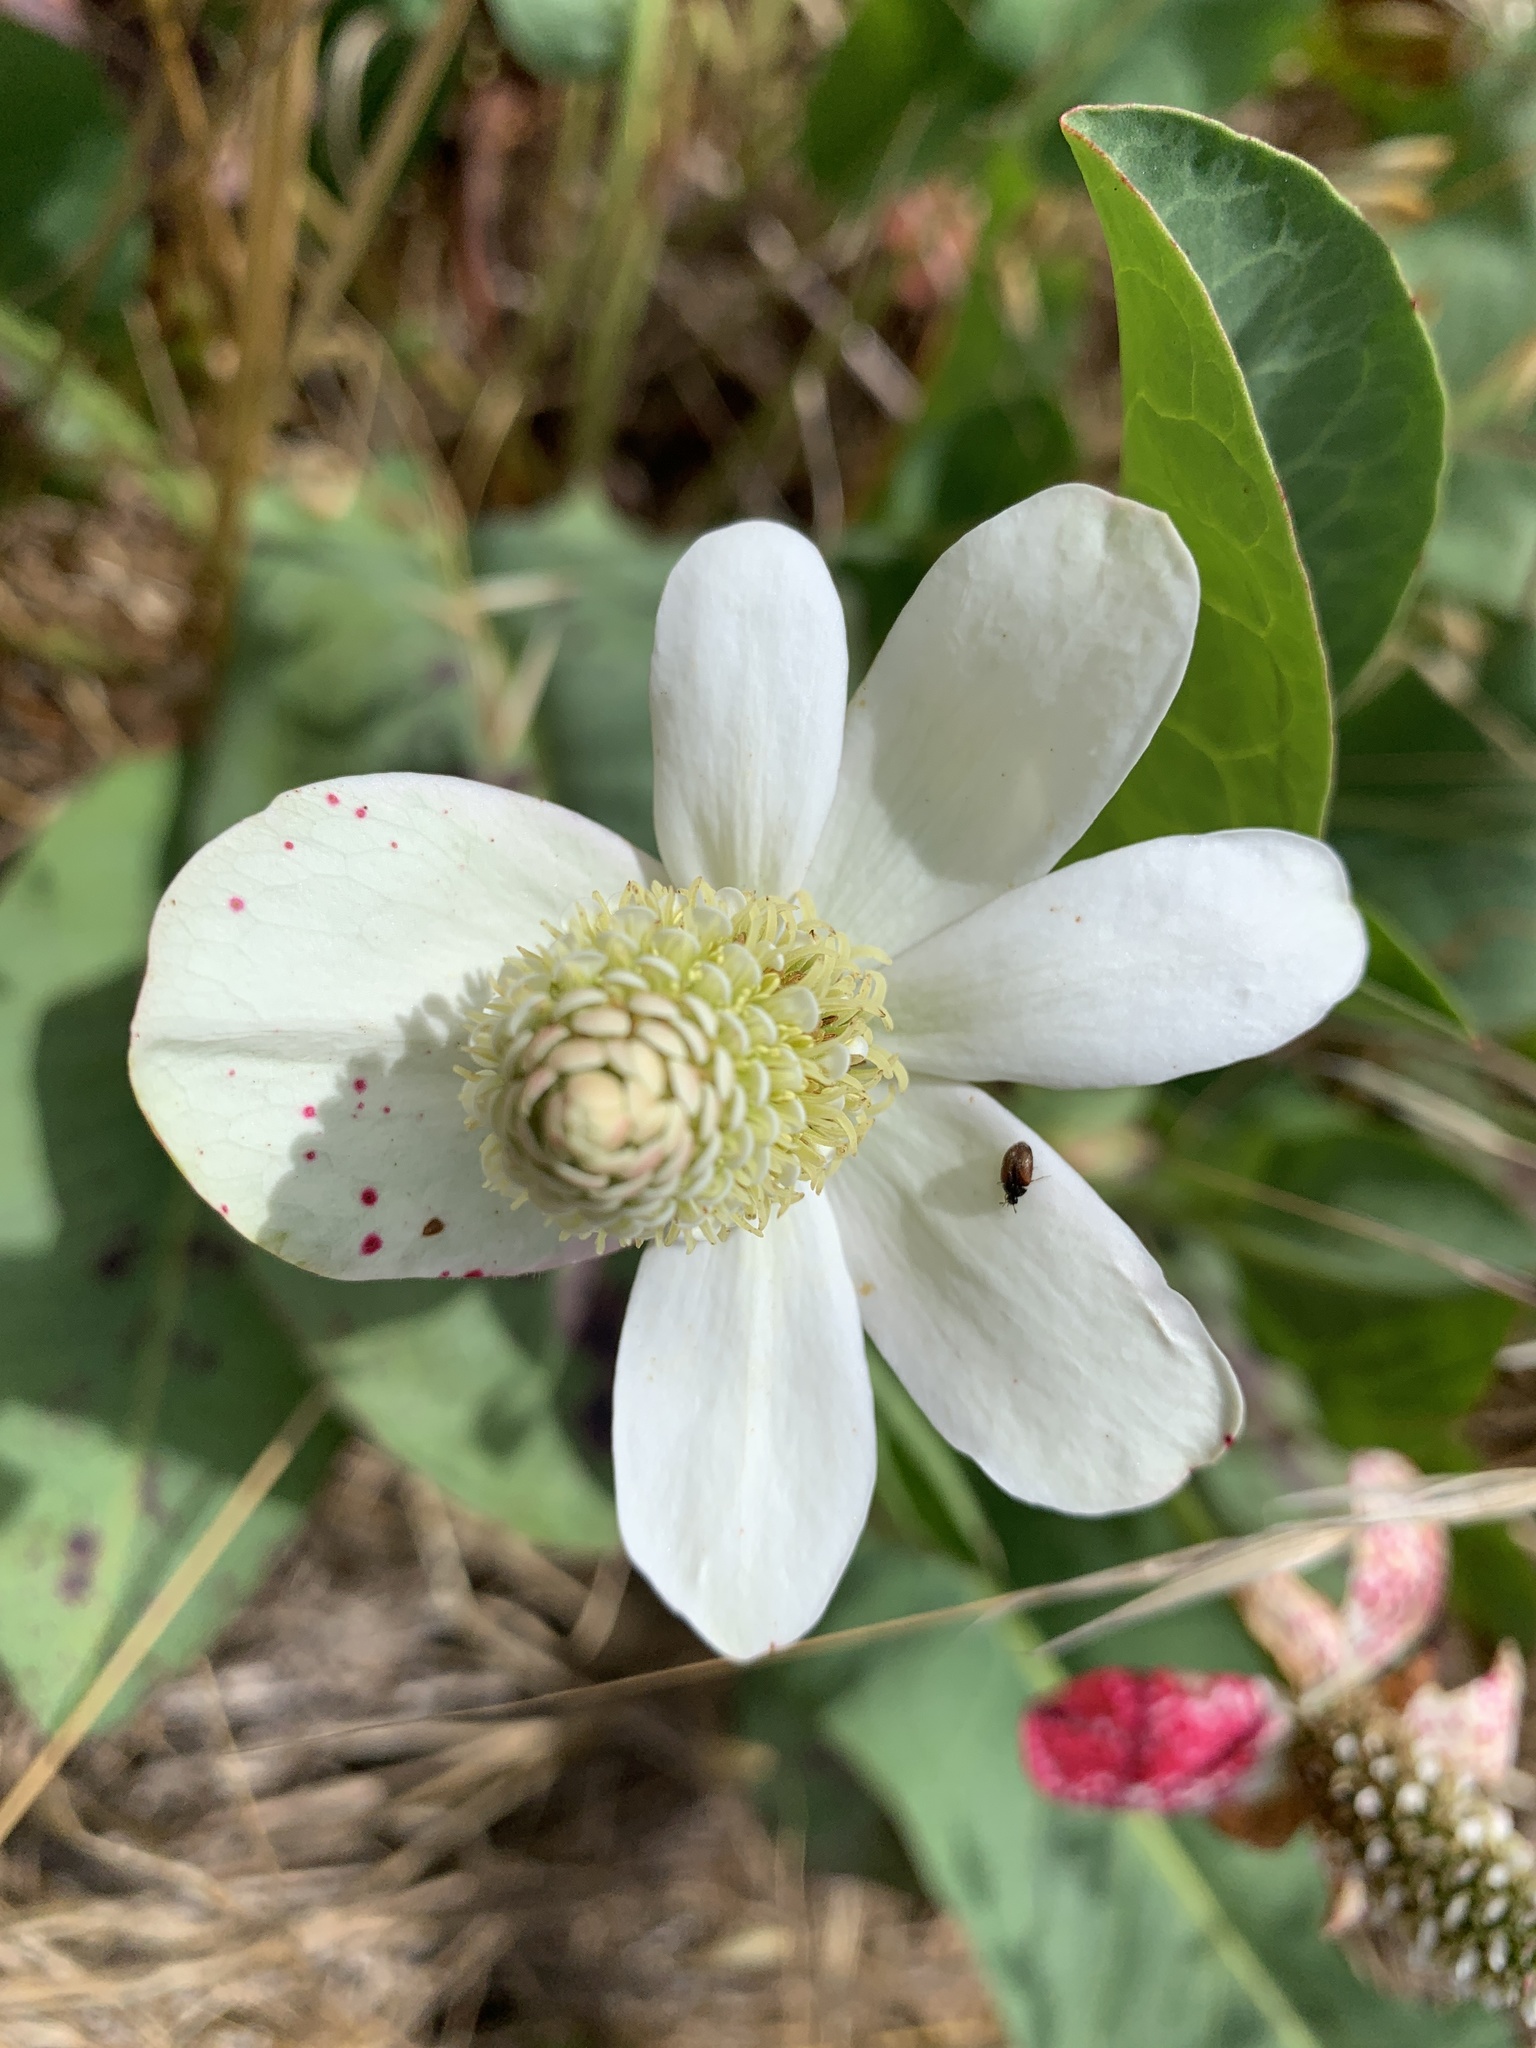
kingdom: Plantae
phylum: Tracheophyta
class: Magnoliopsida
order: Piperales
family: Saururaceae
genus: Anemopsis
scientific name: Anemopsis californica
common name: Apache-beads
